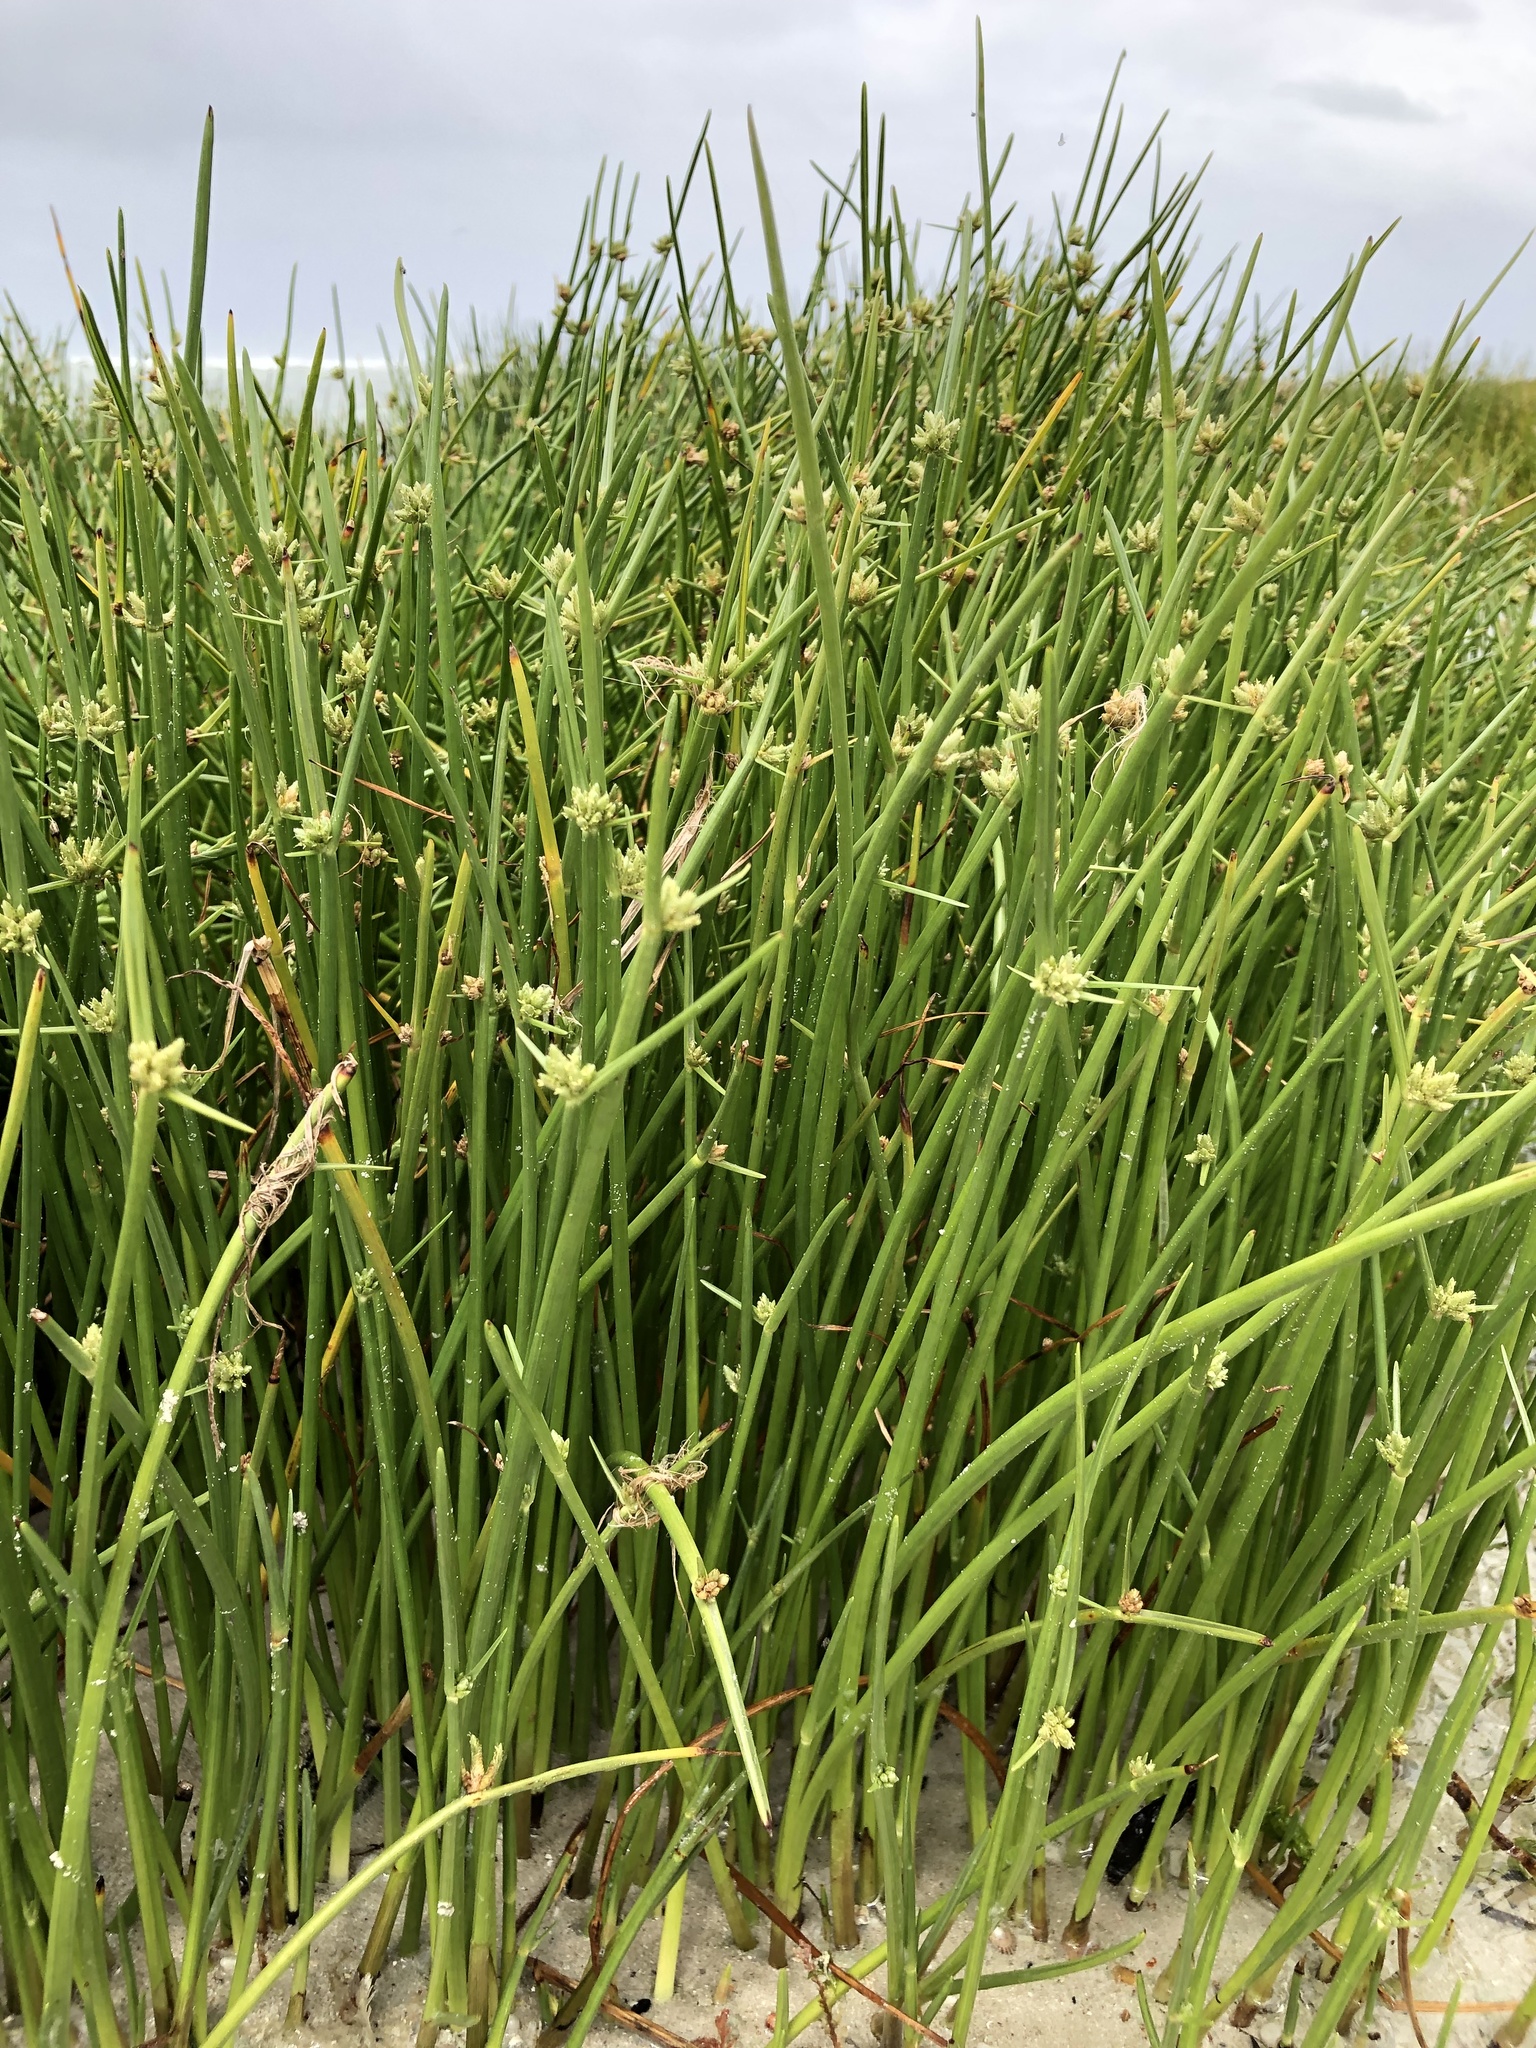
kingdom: Plantae
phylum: Tracheophyta
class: Liliopsida
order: Poales
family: Cyperaceae
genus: Cyperus
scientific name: Cyperus laevigatus
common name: Smooth flat sedge
